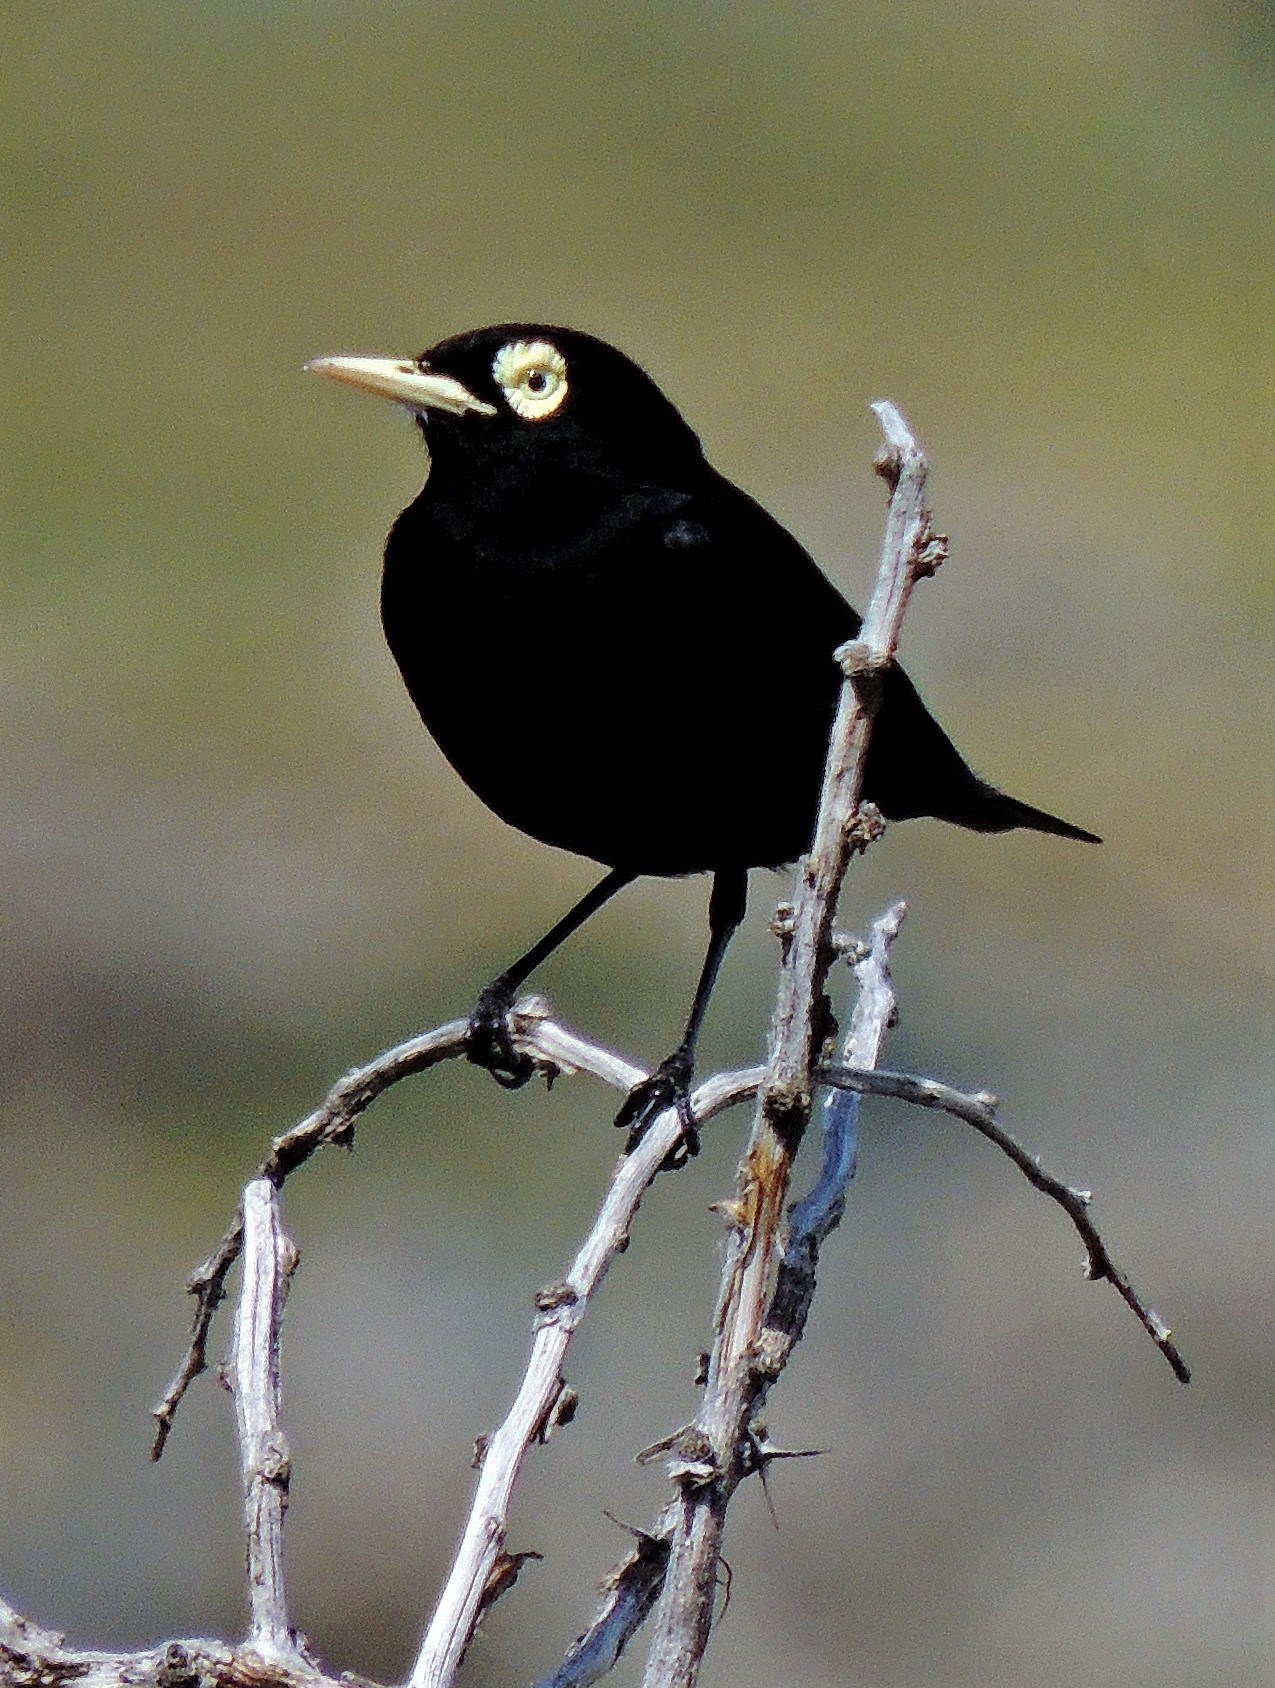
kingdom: Animalia
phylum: Chordata
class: Aves
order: Passeriformes
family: Tyrannidae
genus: Hymenops
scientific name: Hymenops perspicillatus
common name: Spectacled tyrant
